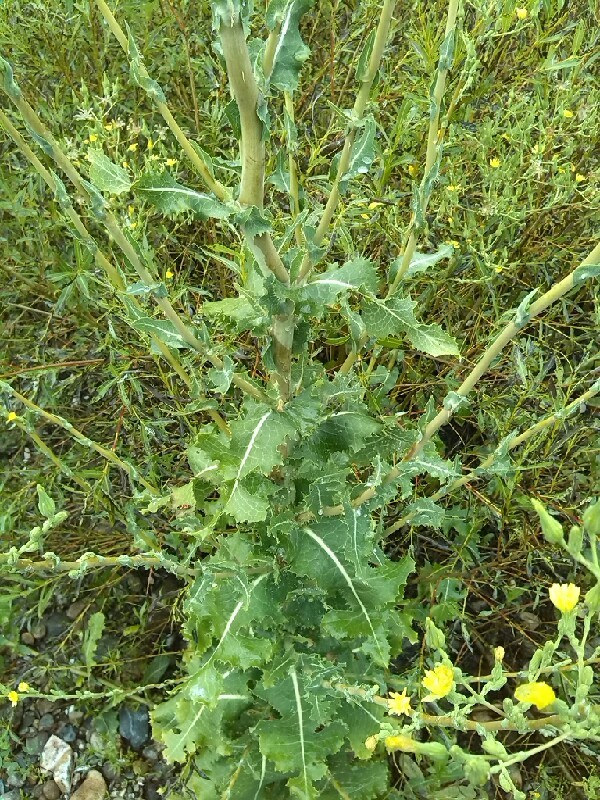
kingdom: Plantae
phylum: Tracheophyta
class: Magnoliopsida
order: Asterales
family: Asteraceae
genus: Lactuca
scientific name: Lactuca serriola
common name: Prickly lettuce
